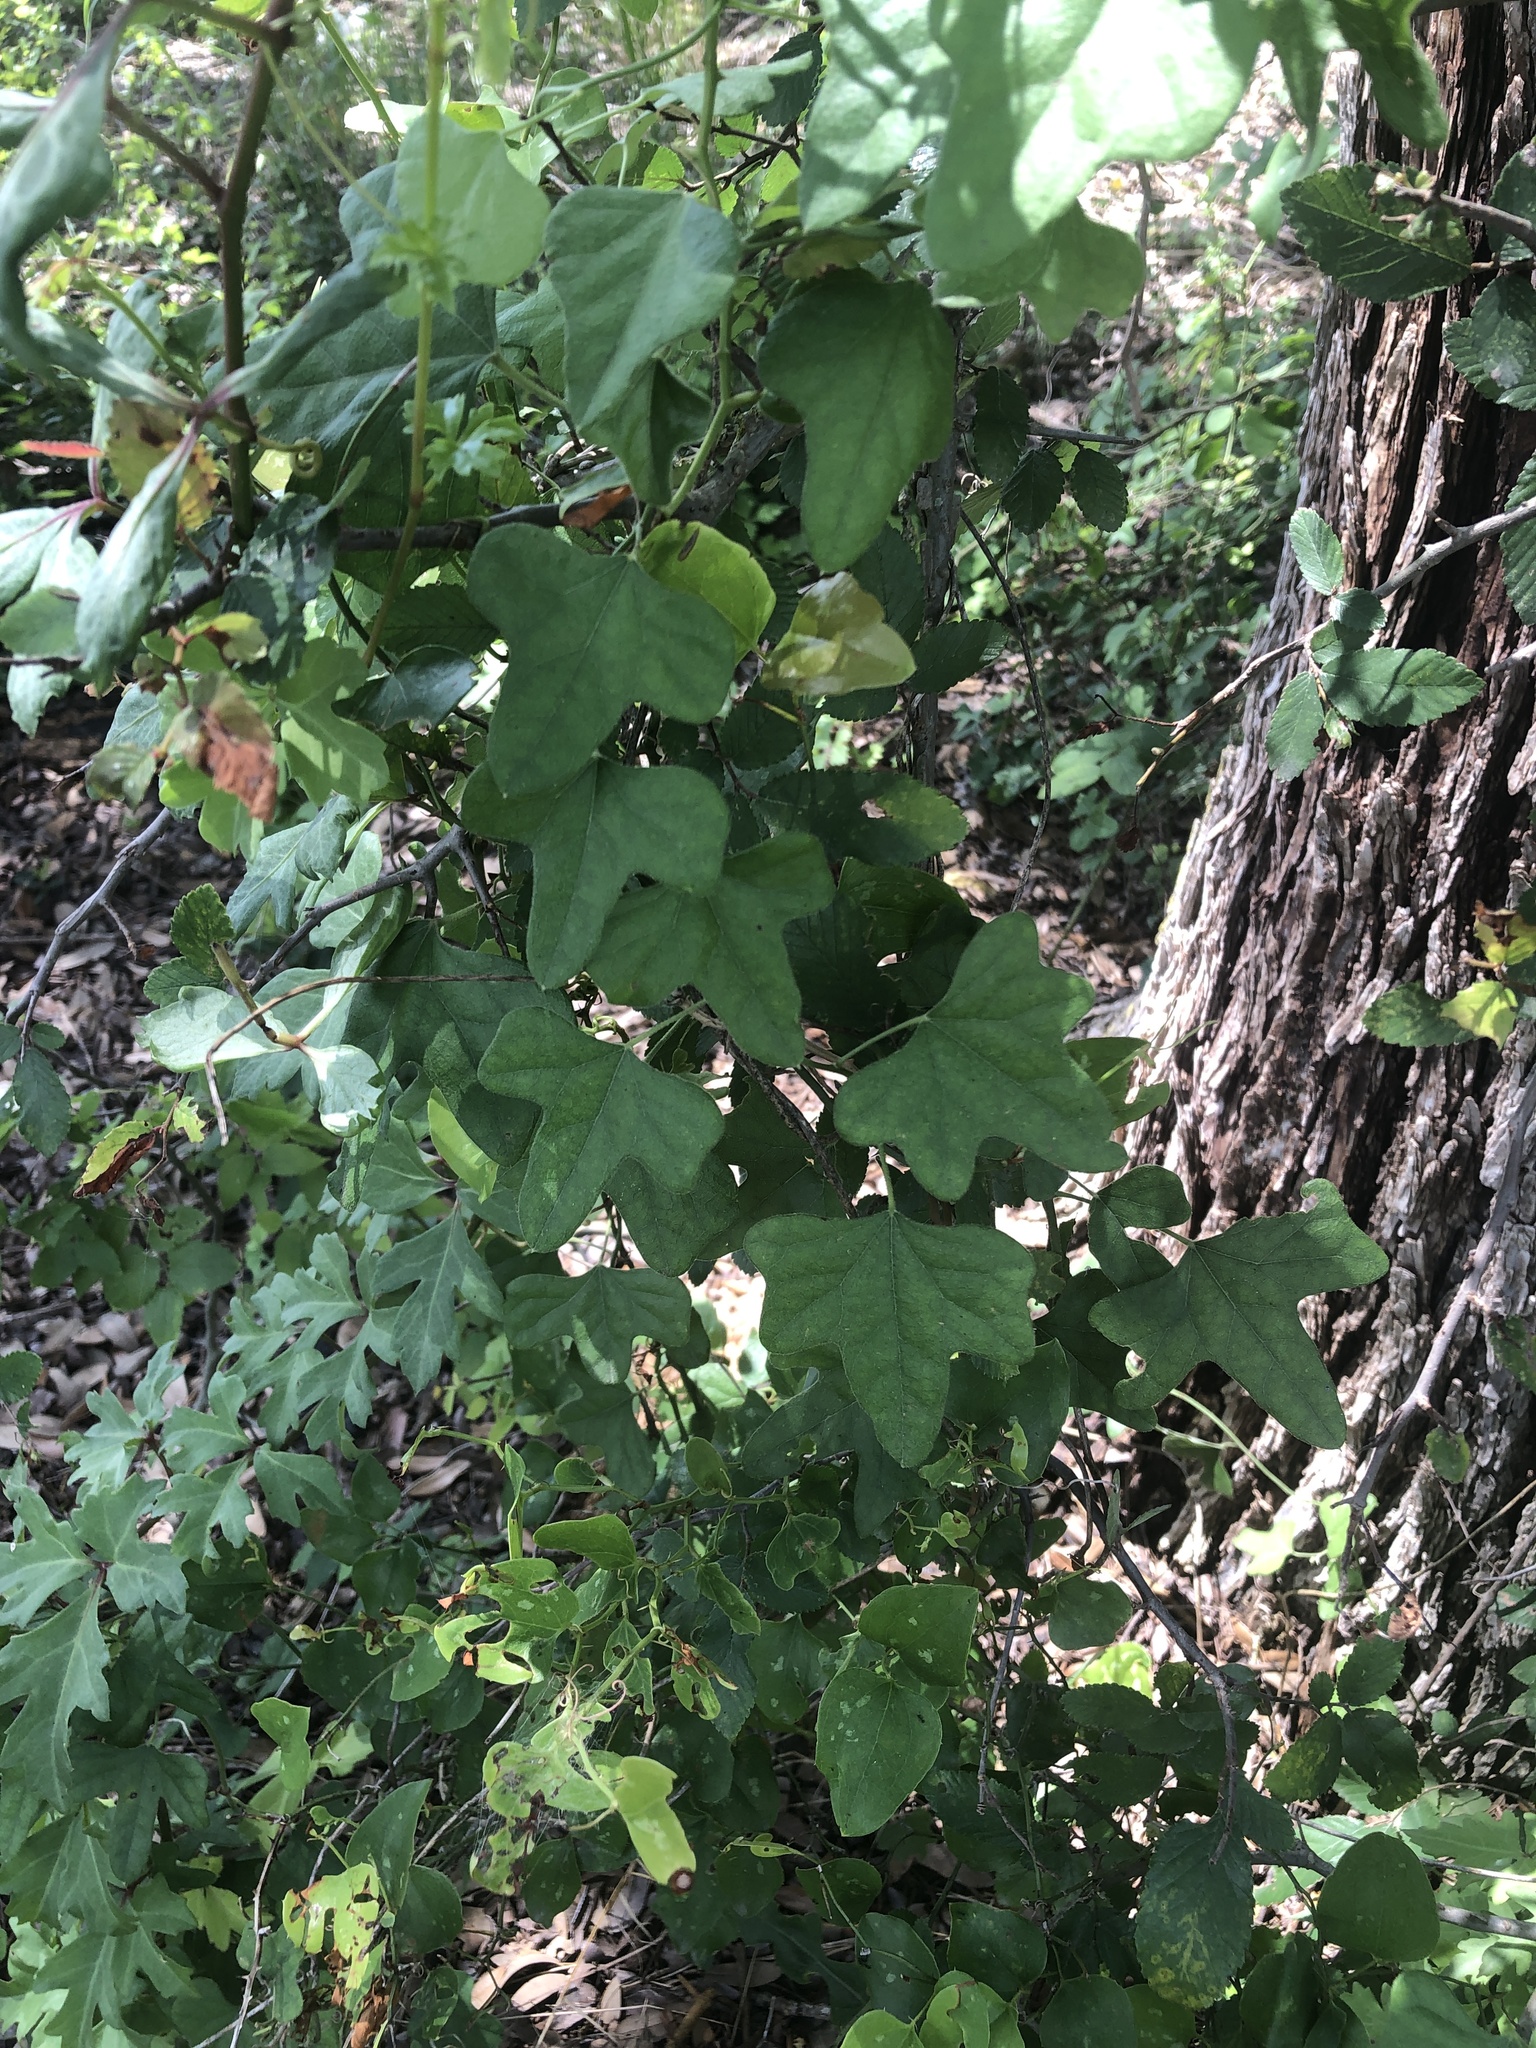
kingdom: Plantae
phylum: Tracheophyta
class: Magnoliopsida
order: Ranunculales
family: Menispermaceae
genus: Cocculus
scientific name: Cocculus carolinus
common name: Carolina moonseed
